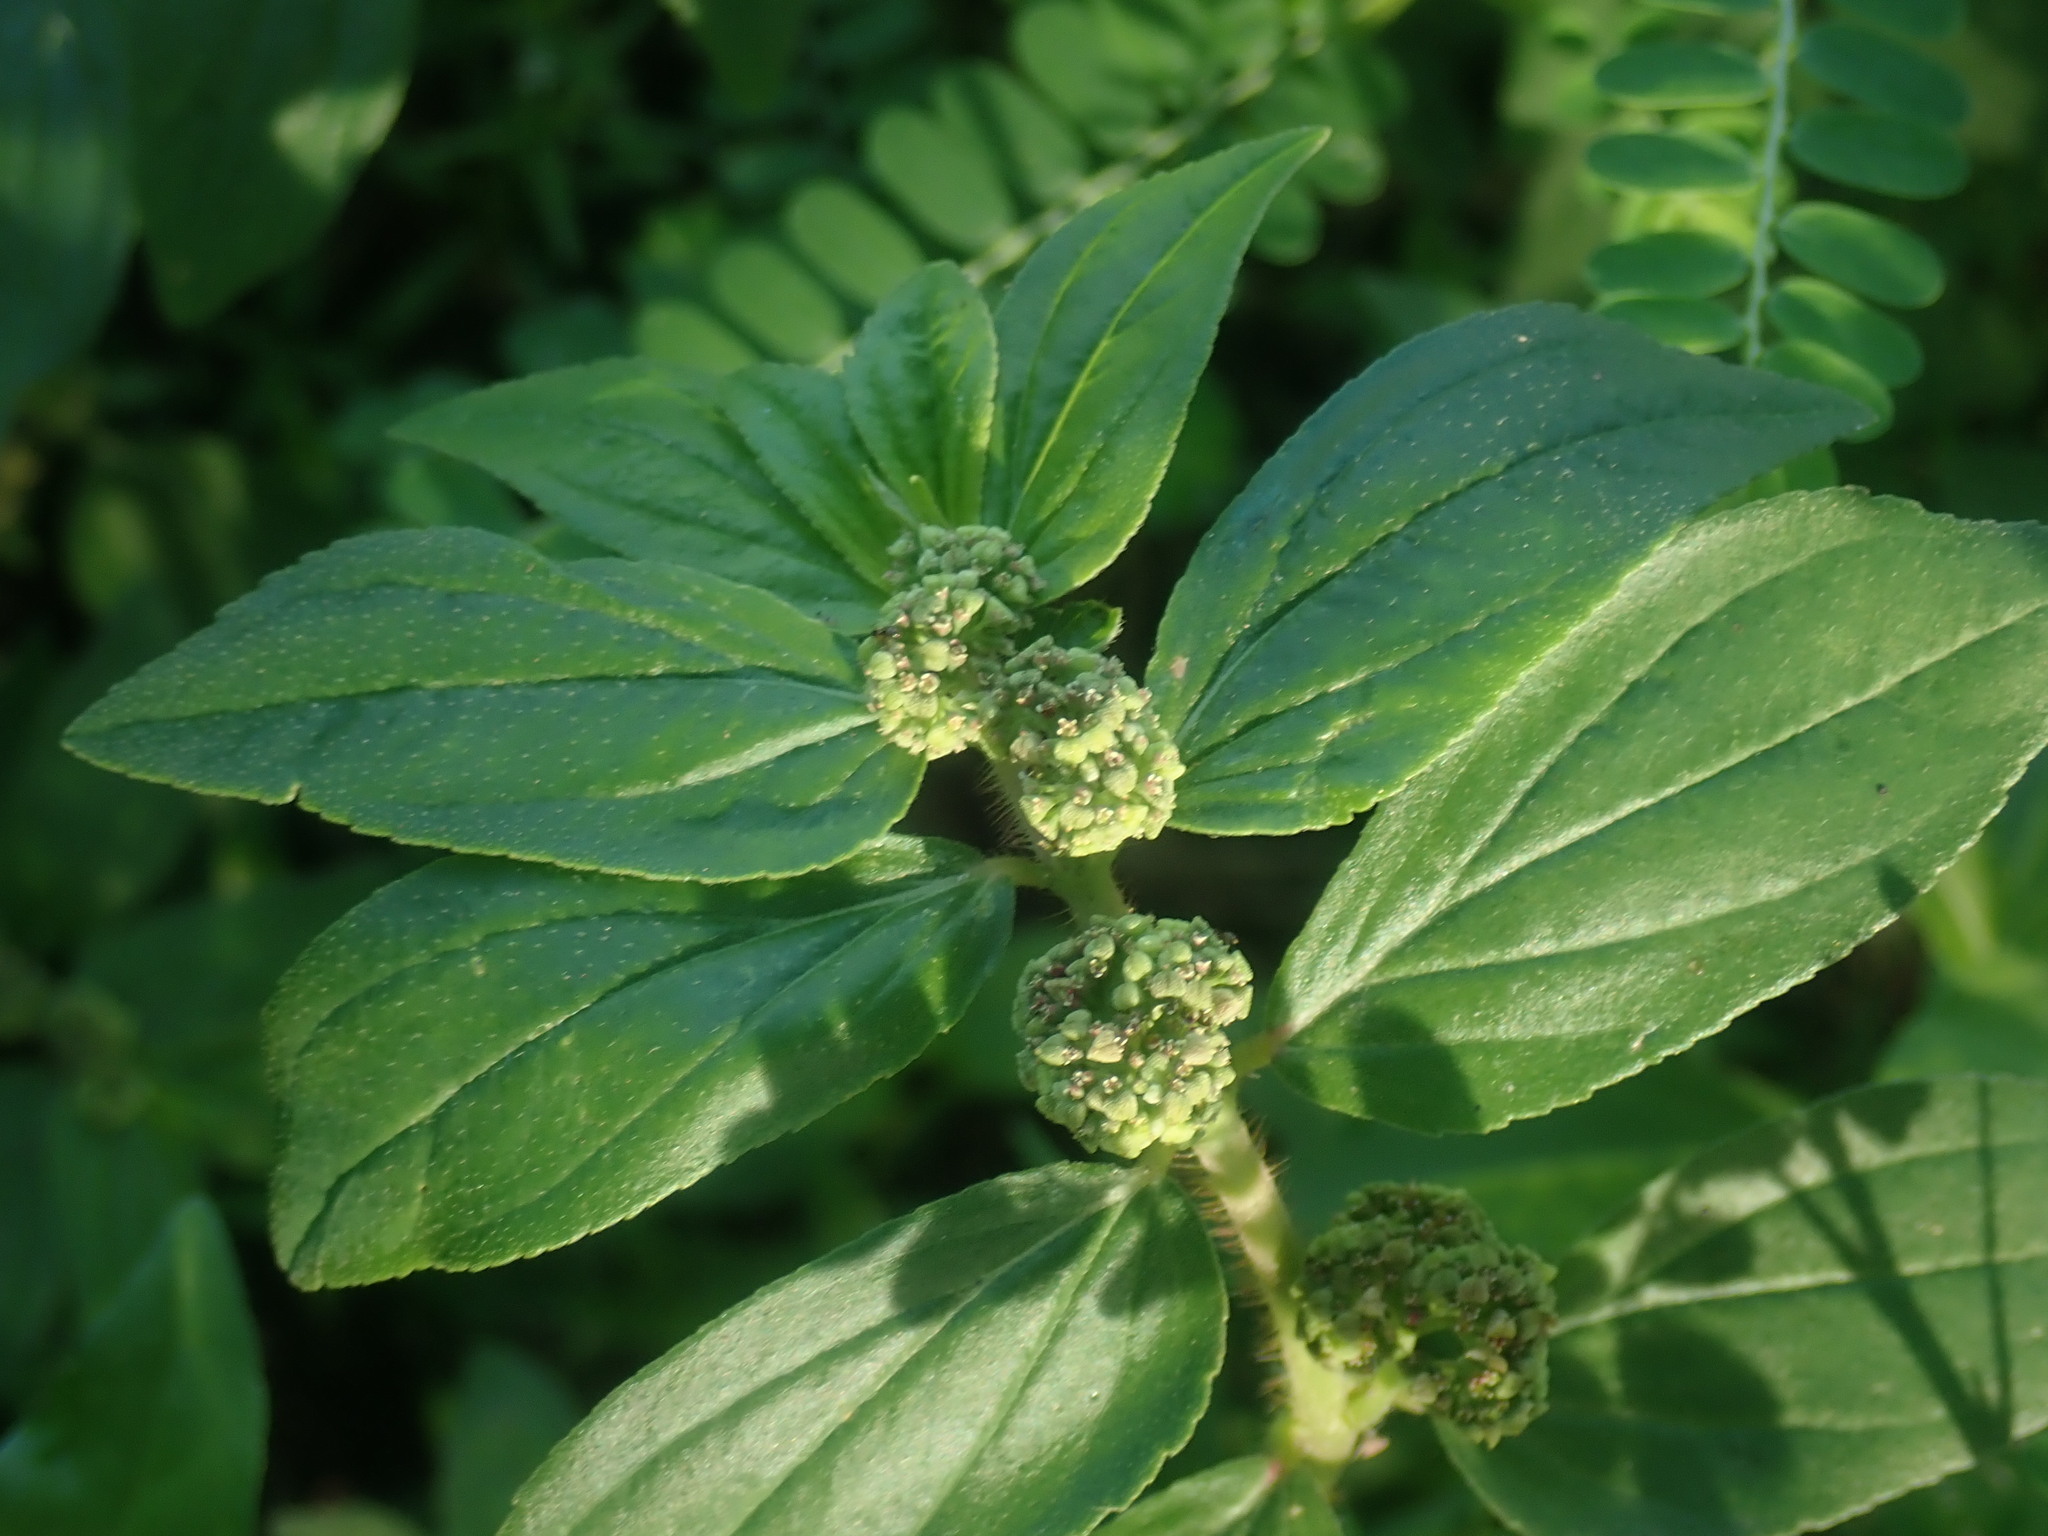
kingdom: Plantae
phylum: Tracheophyta
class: Magnoliopsida
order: Malpighiales
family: Euphorbiaceae
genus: Euphorbia
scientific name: Euphorbia hirta
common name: Pillpod sandmat
